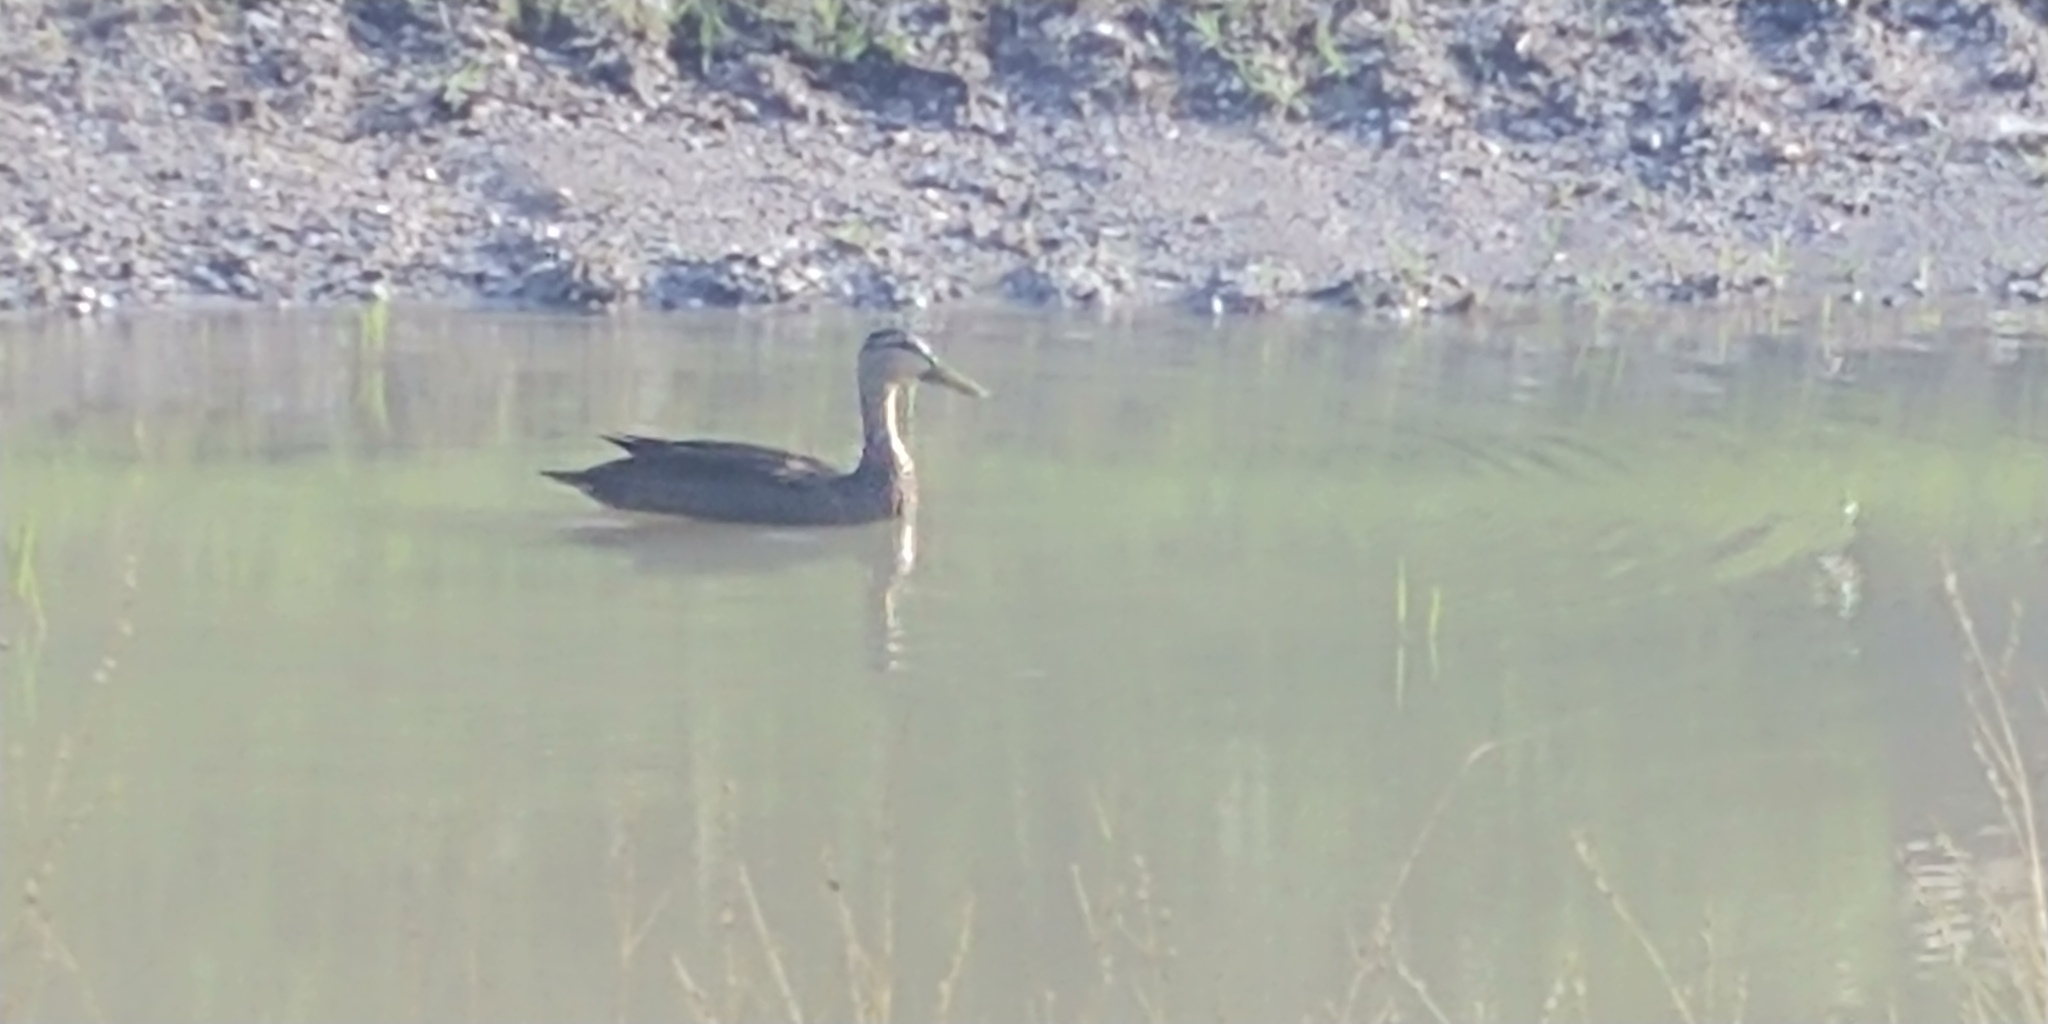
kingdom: Animalia
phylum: Chordata
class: Aves
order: Anseriformes
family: Anatidae
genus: Anas
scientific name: Anas
